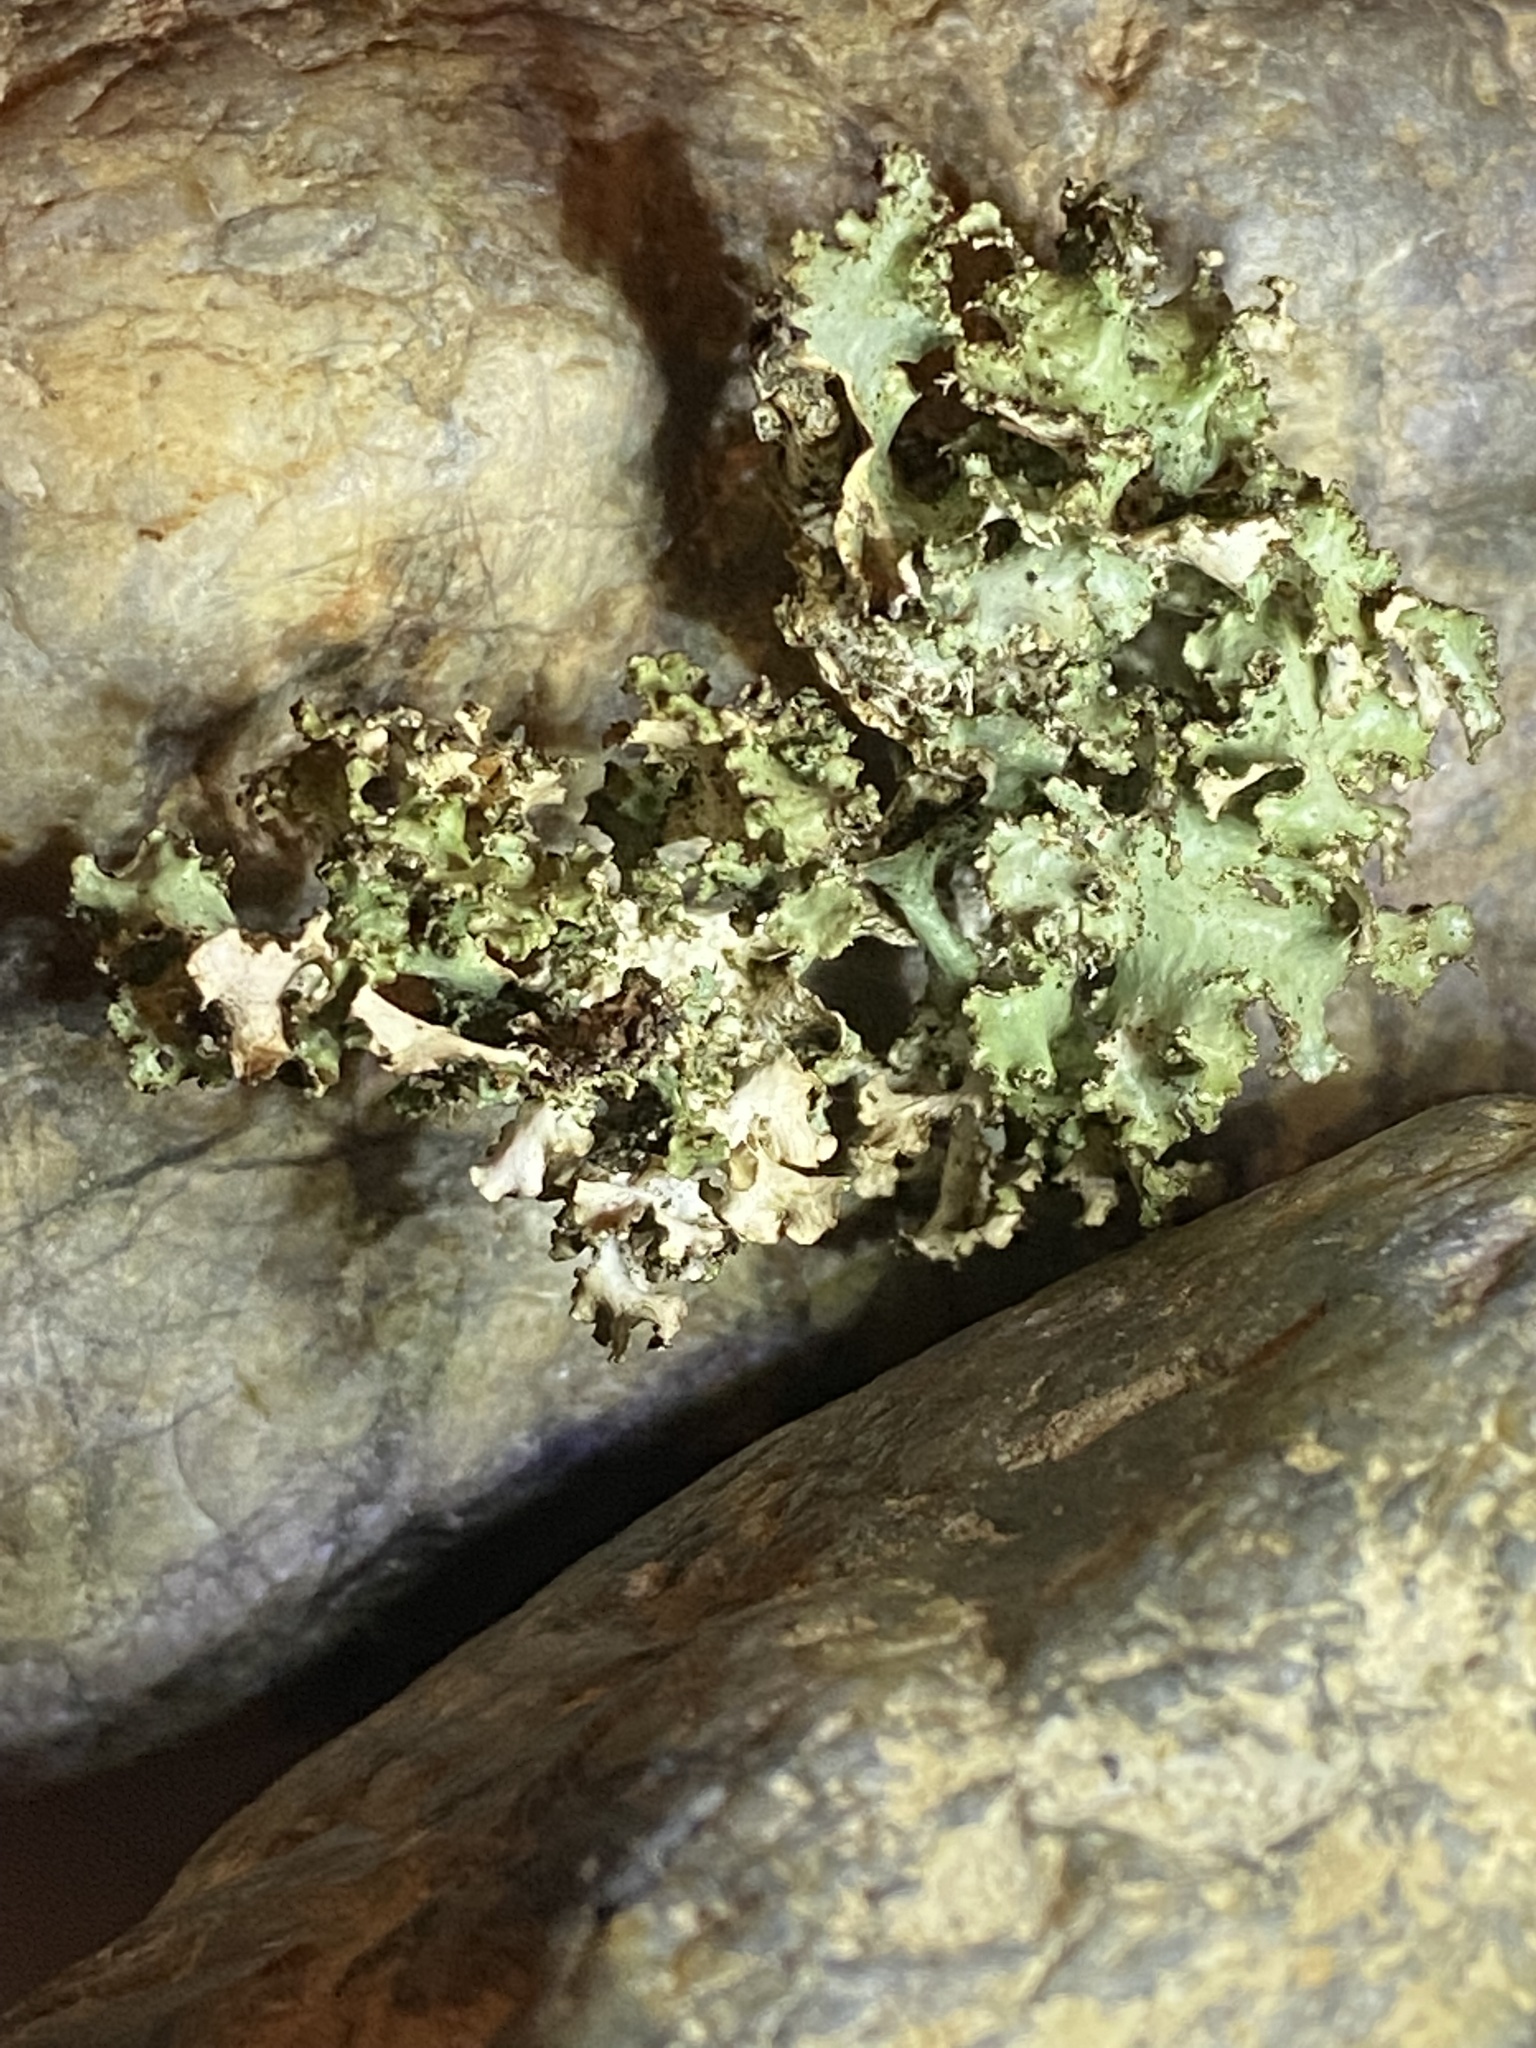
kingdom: Fungi
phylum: Ascomycota
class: Lecanoromycetes
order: Lecanorales
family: Parmeliaceae
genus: Nephromopsis
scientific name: Nephromopsis orbata
